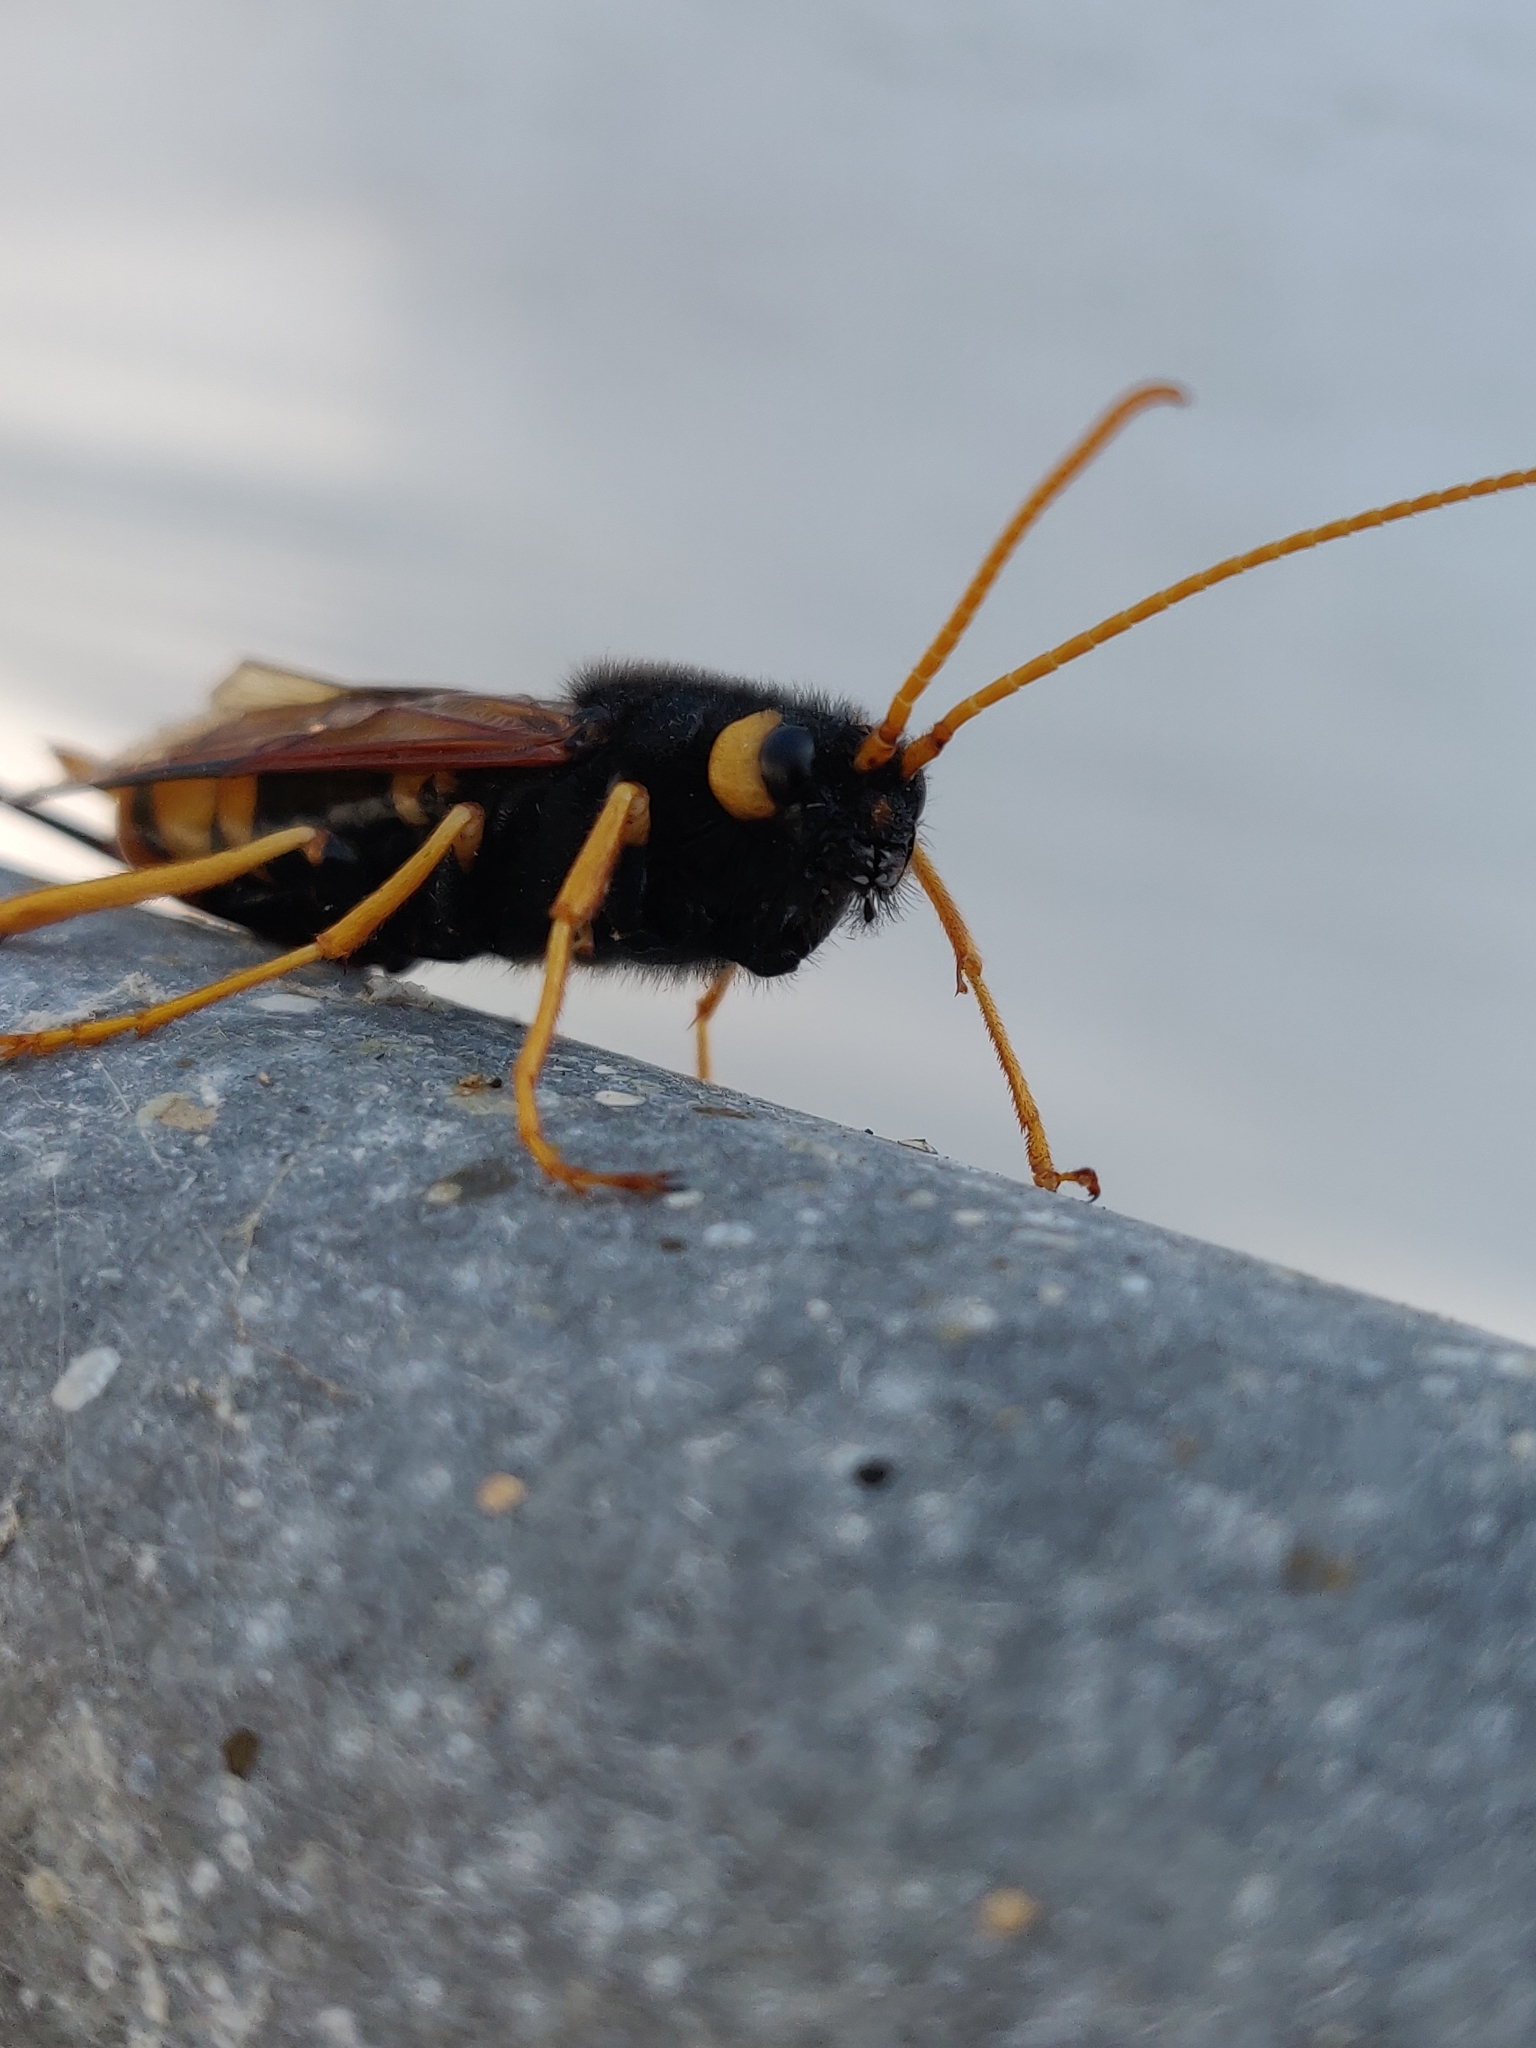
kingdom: Animalia
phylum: Arthropoda
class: Insecta
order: Hymenoptera
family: Siricidae
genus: Urocerus
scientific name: Urocerus gigas
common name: Giant woodwasp
